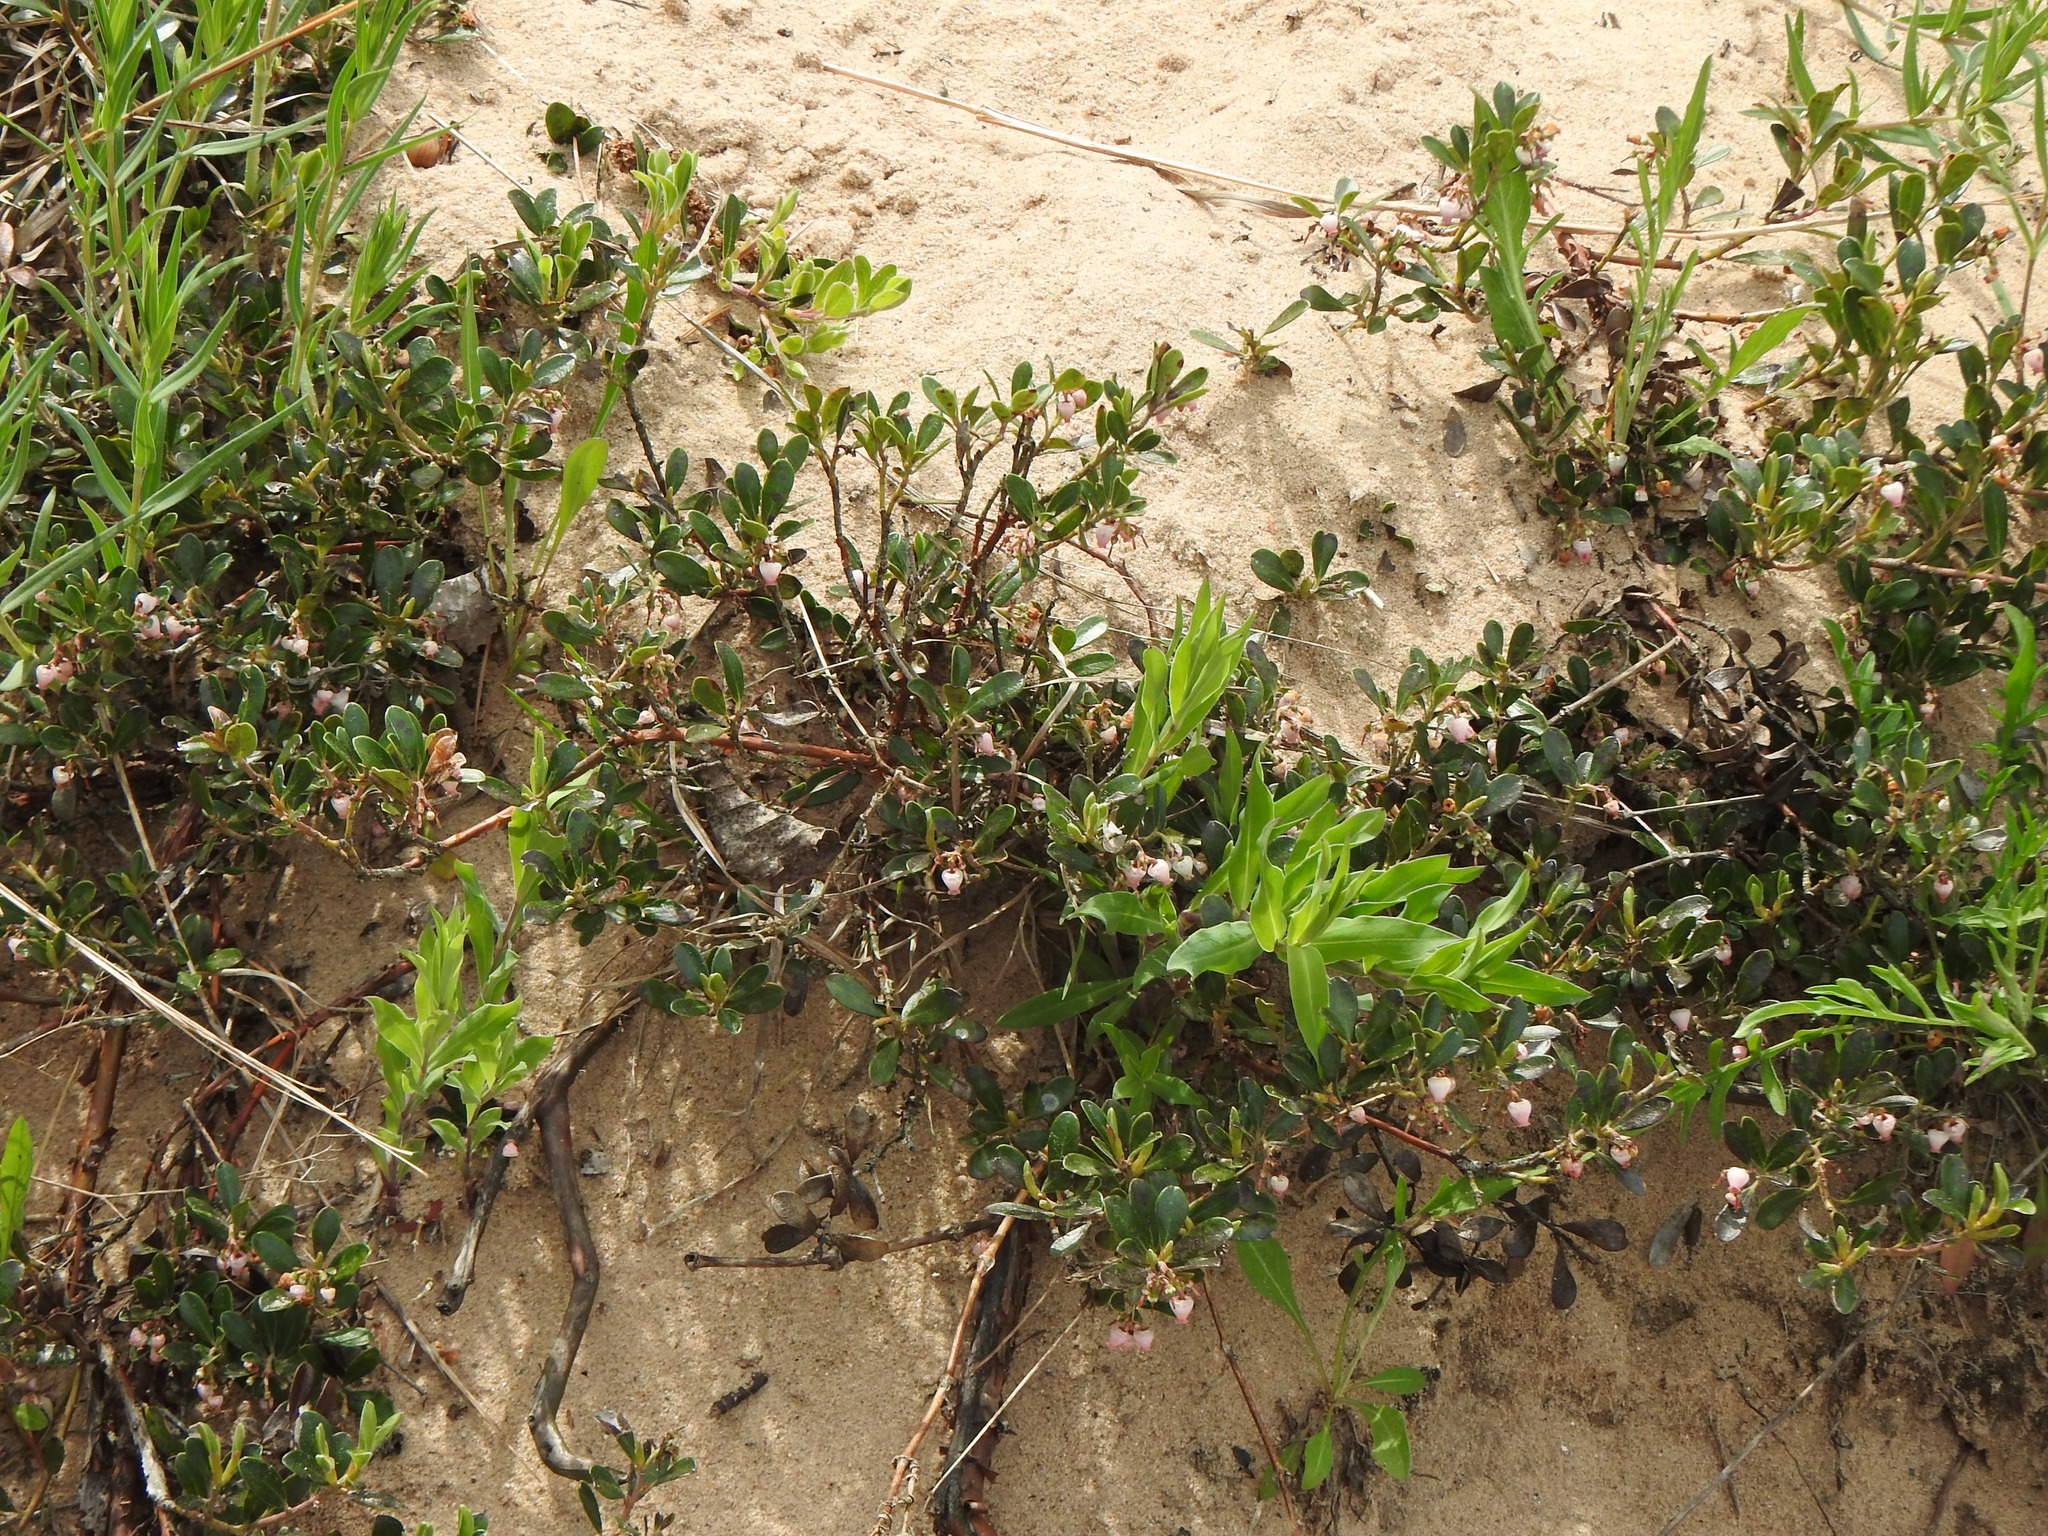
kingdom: Plantae
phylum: Tracheophyta
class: Magnoliopsida
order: Ericales
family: Ericaceae
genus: Arctostaphylos
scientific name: Arctostaphylos uva-ursi
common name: Bearberry
